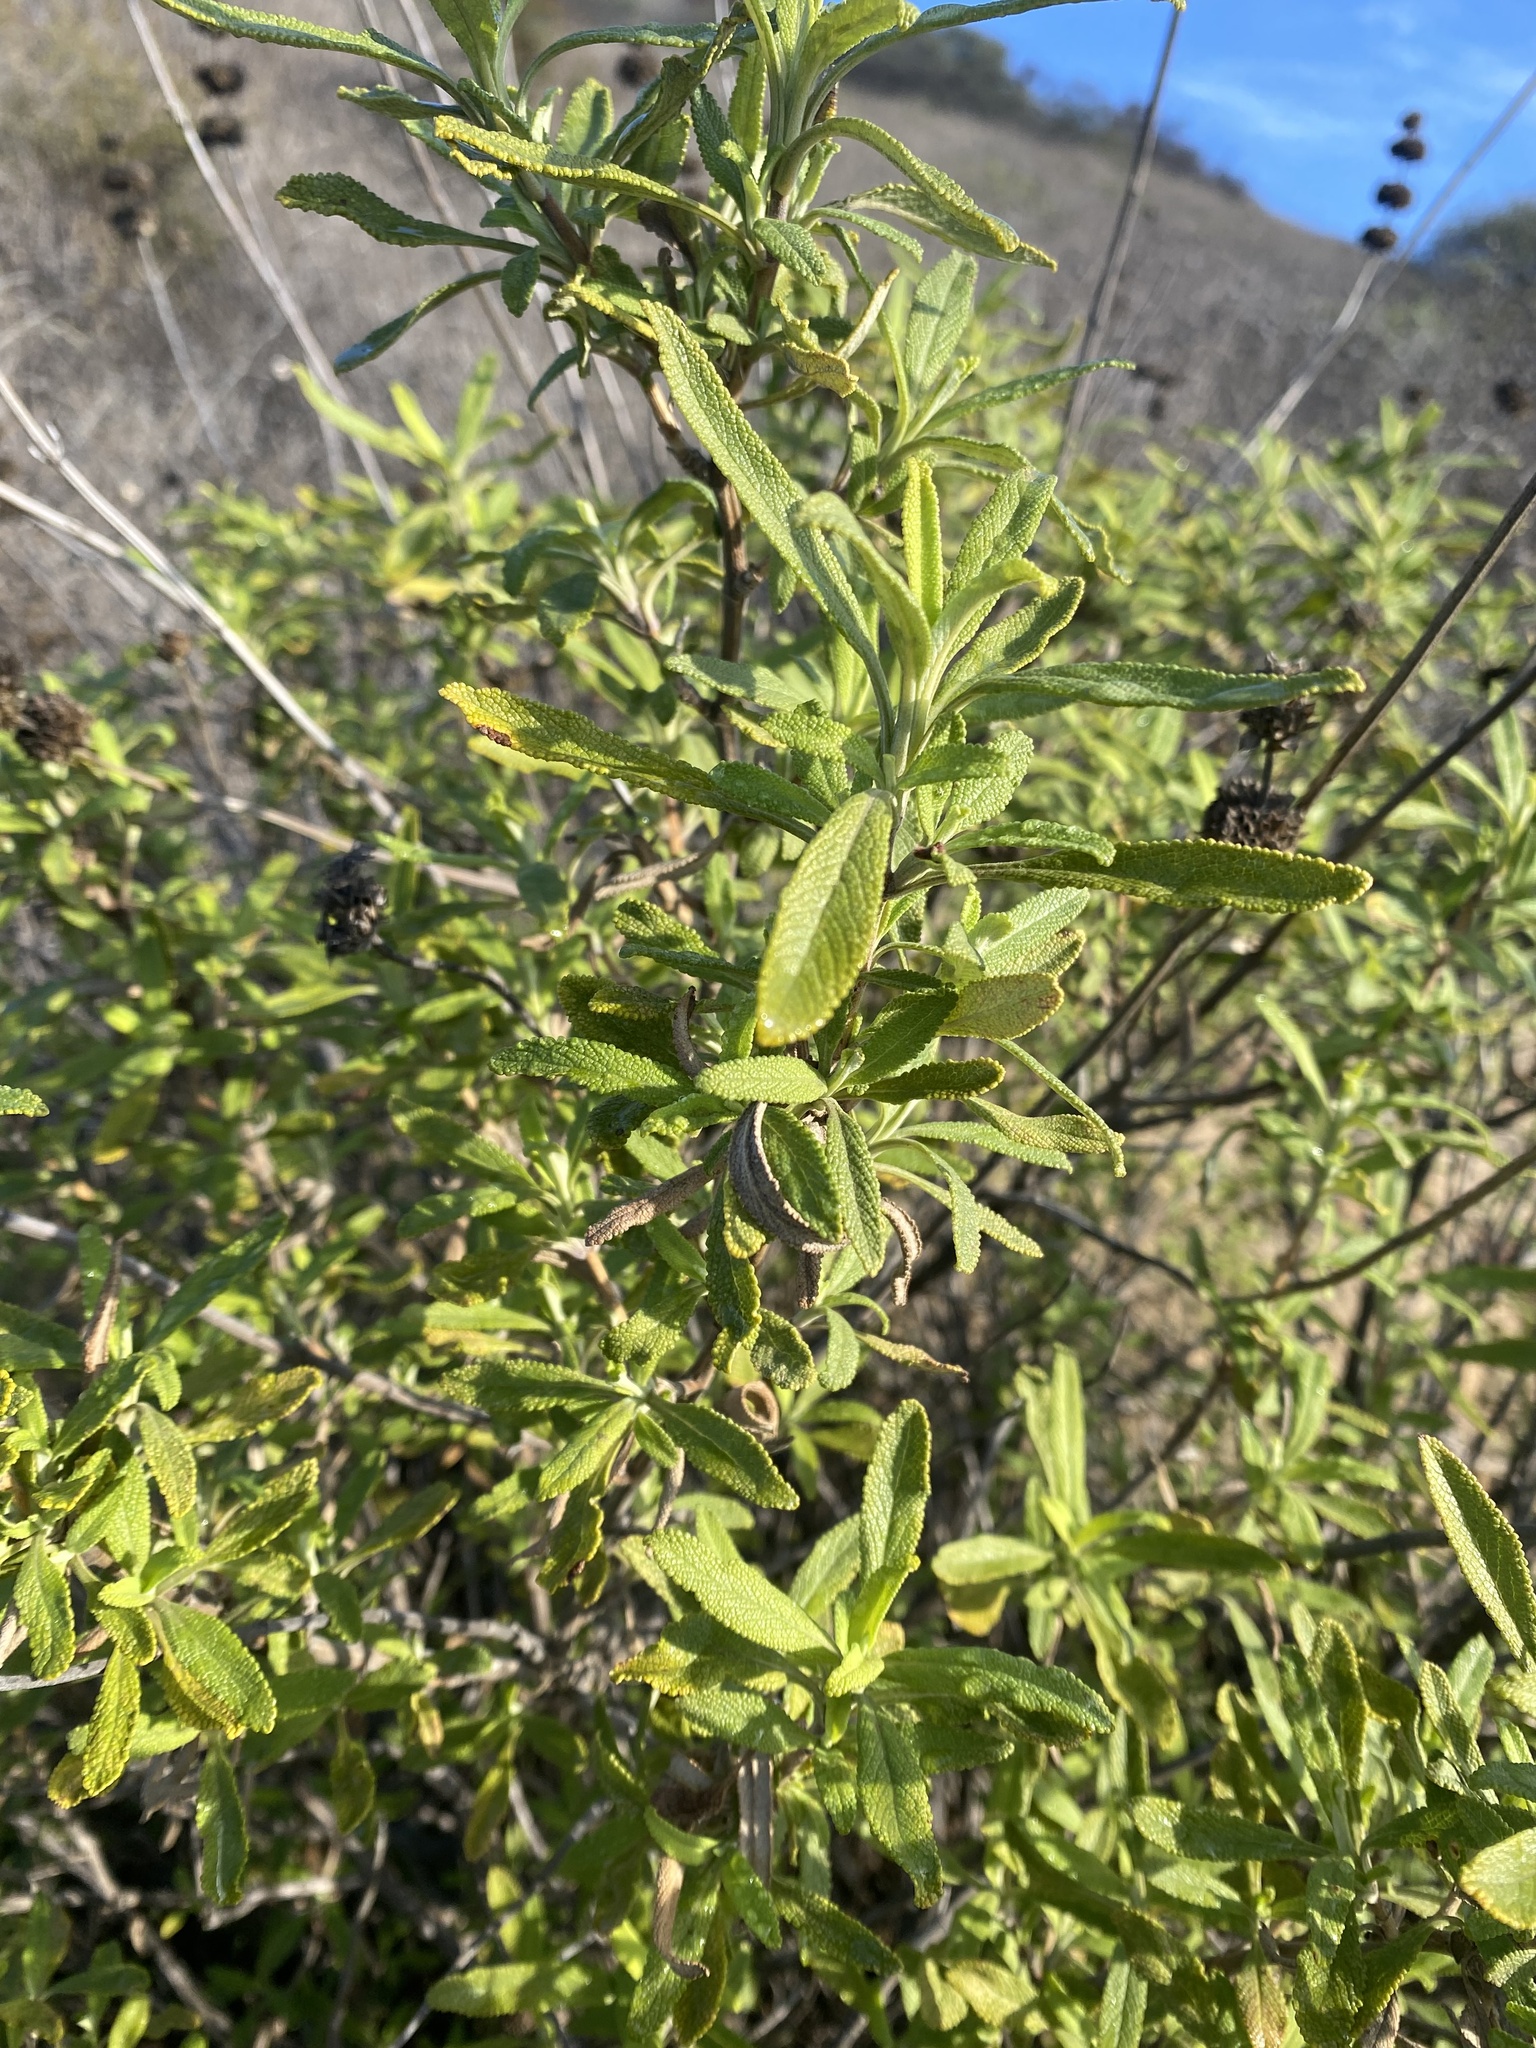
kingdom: Plantae
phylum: Tracheophyta
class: Magnoliopsida
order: Lamiales
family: Lamiaceae
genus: Salvia
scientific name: Salvia mellifera
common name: Black sage
